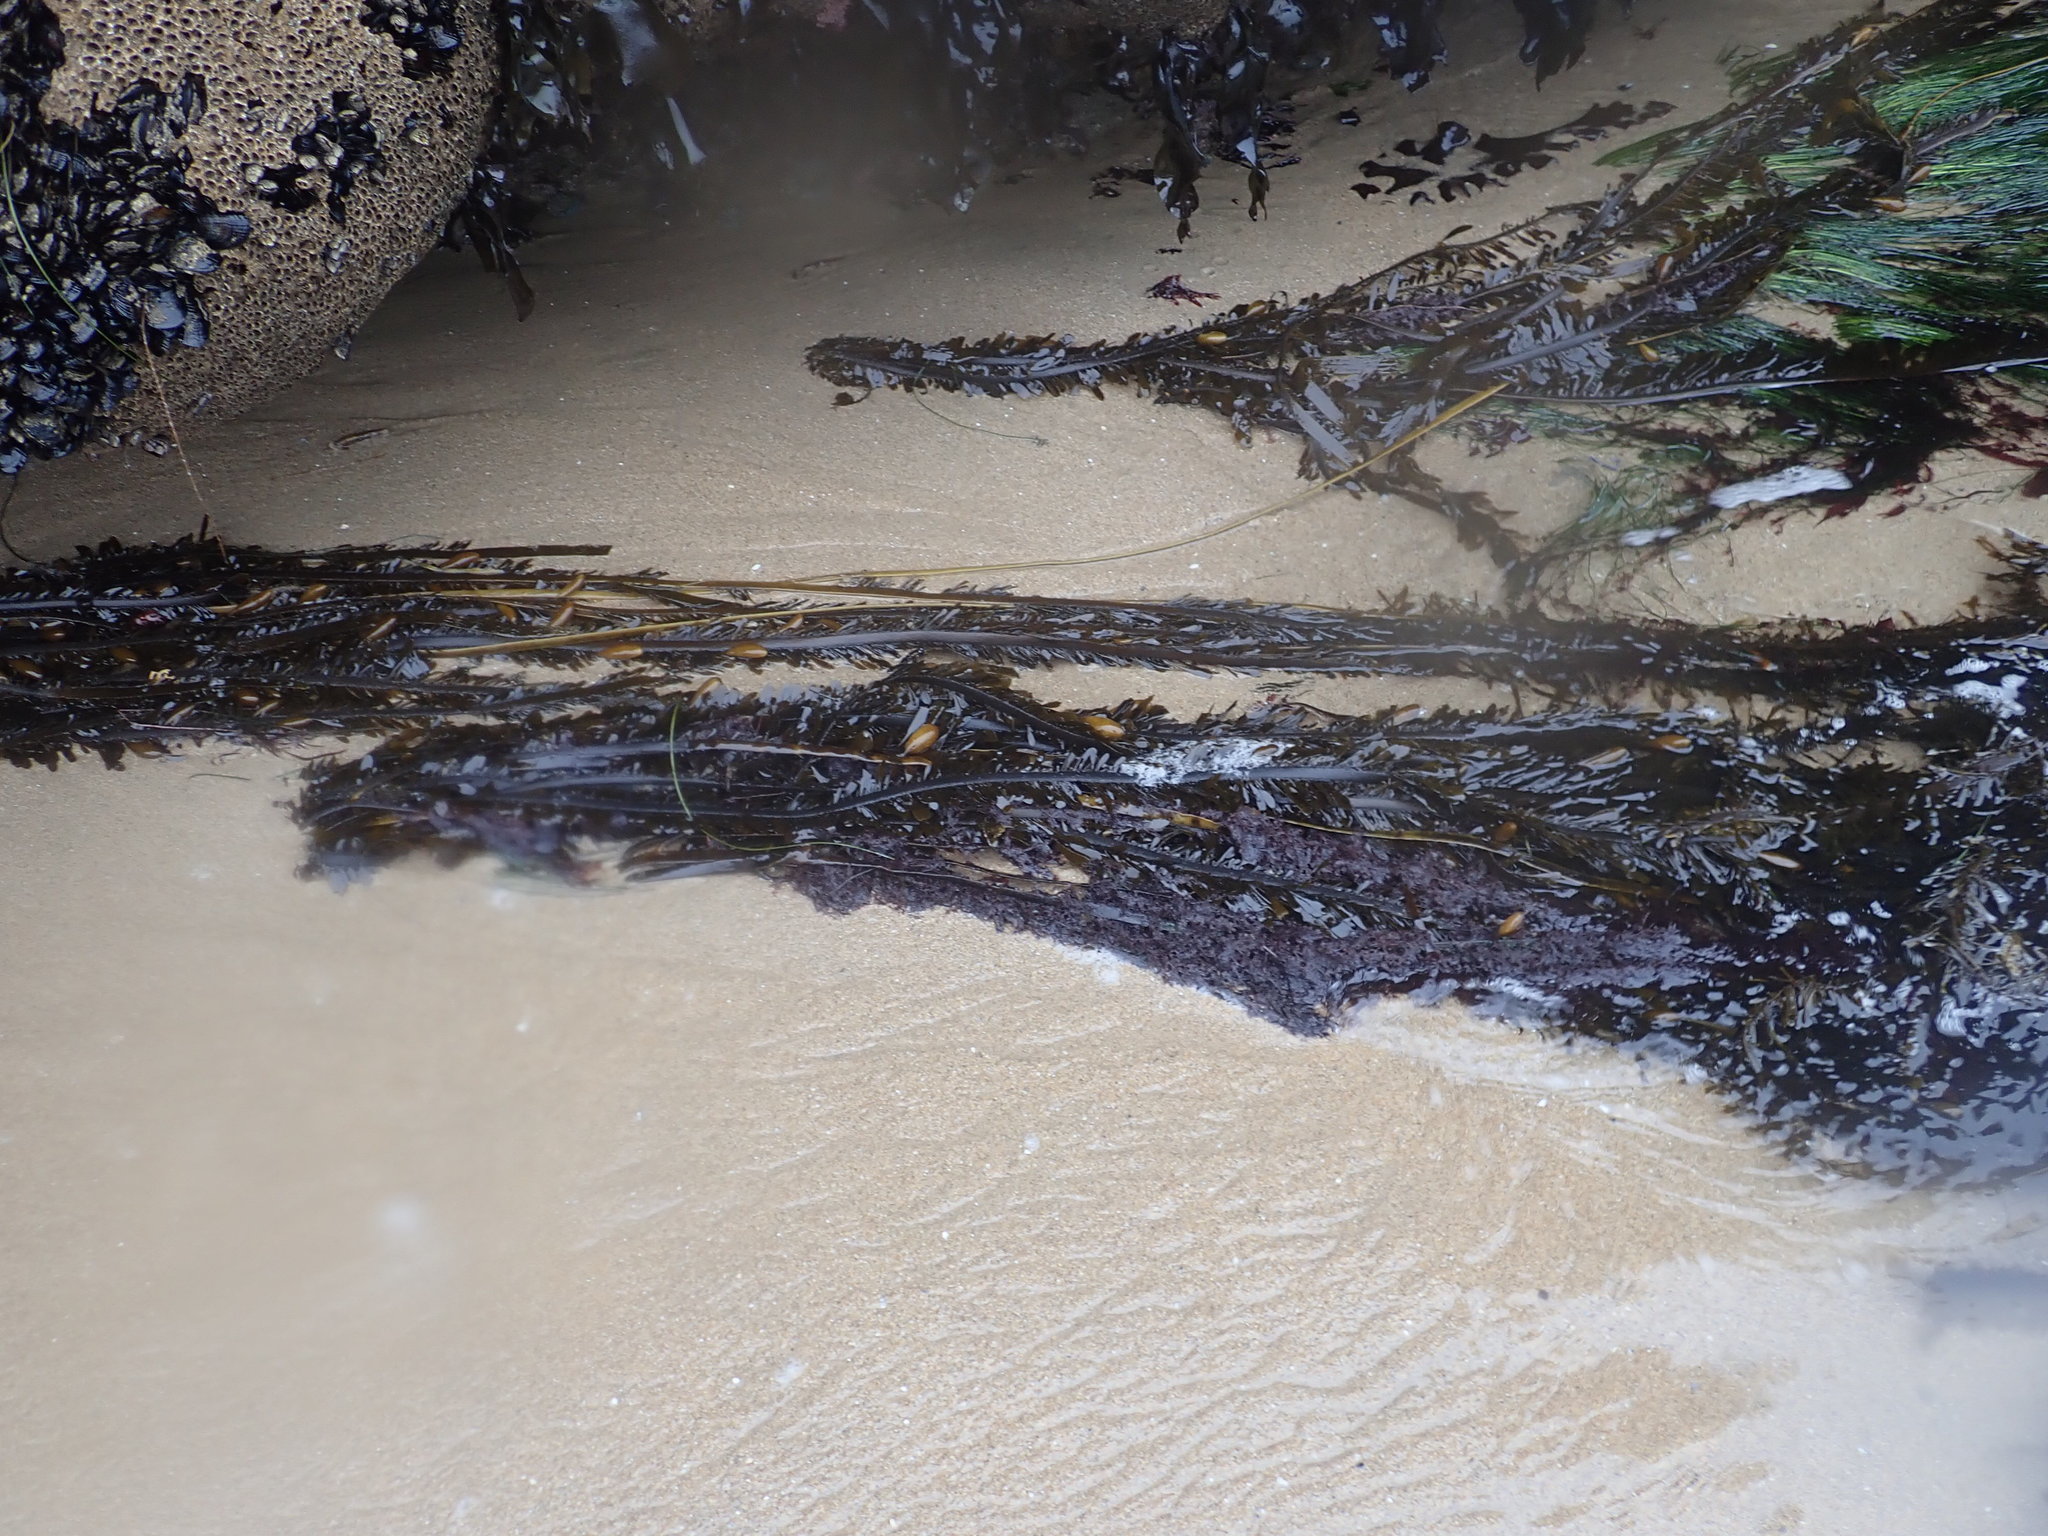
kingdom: Chromista
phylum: Ochrophyta
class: Phaeophyceae
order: Laminariales
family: Lessoniaceae
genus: Egregia
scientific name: Egregia menziesii
